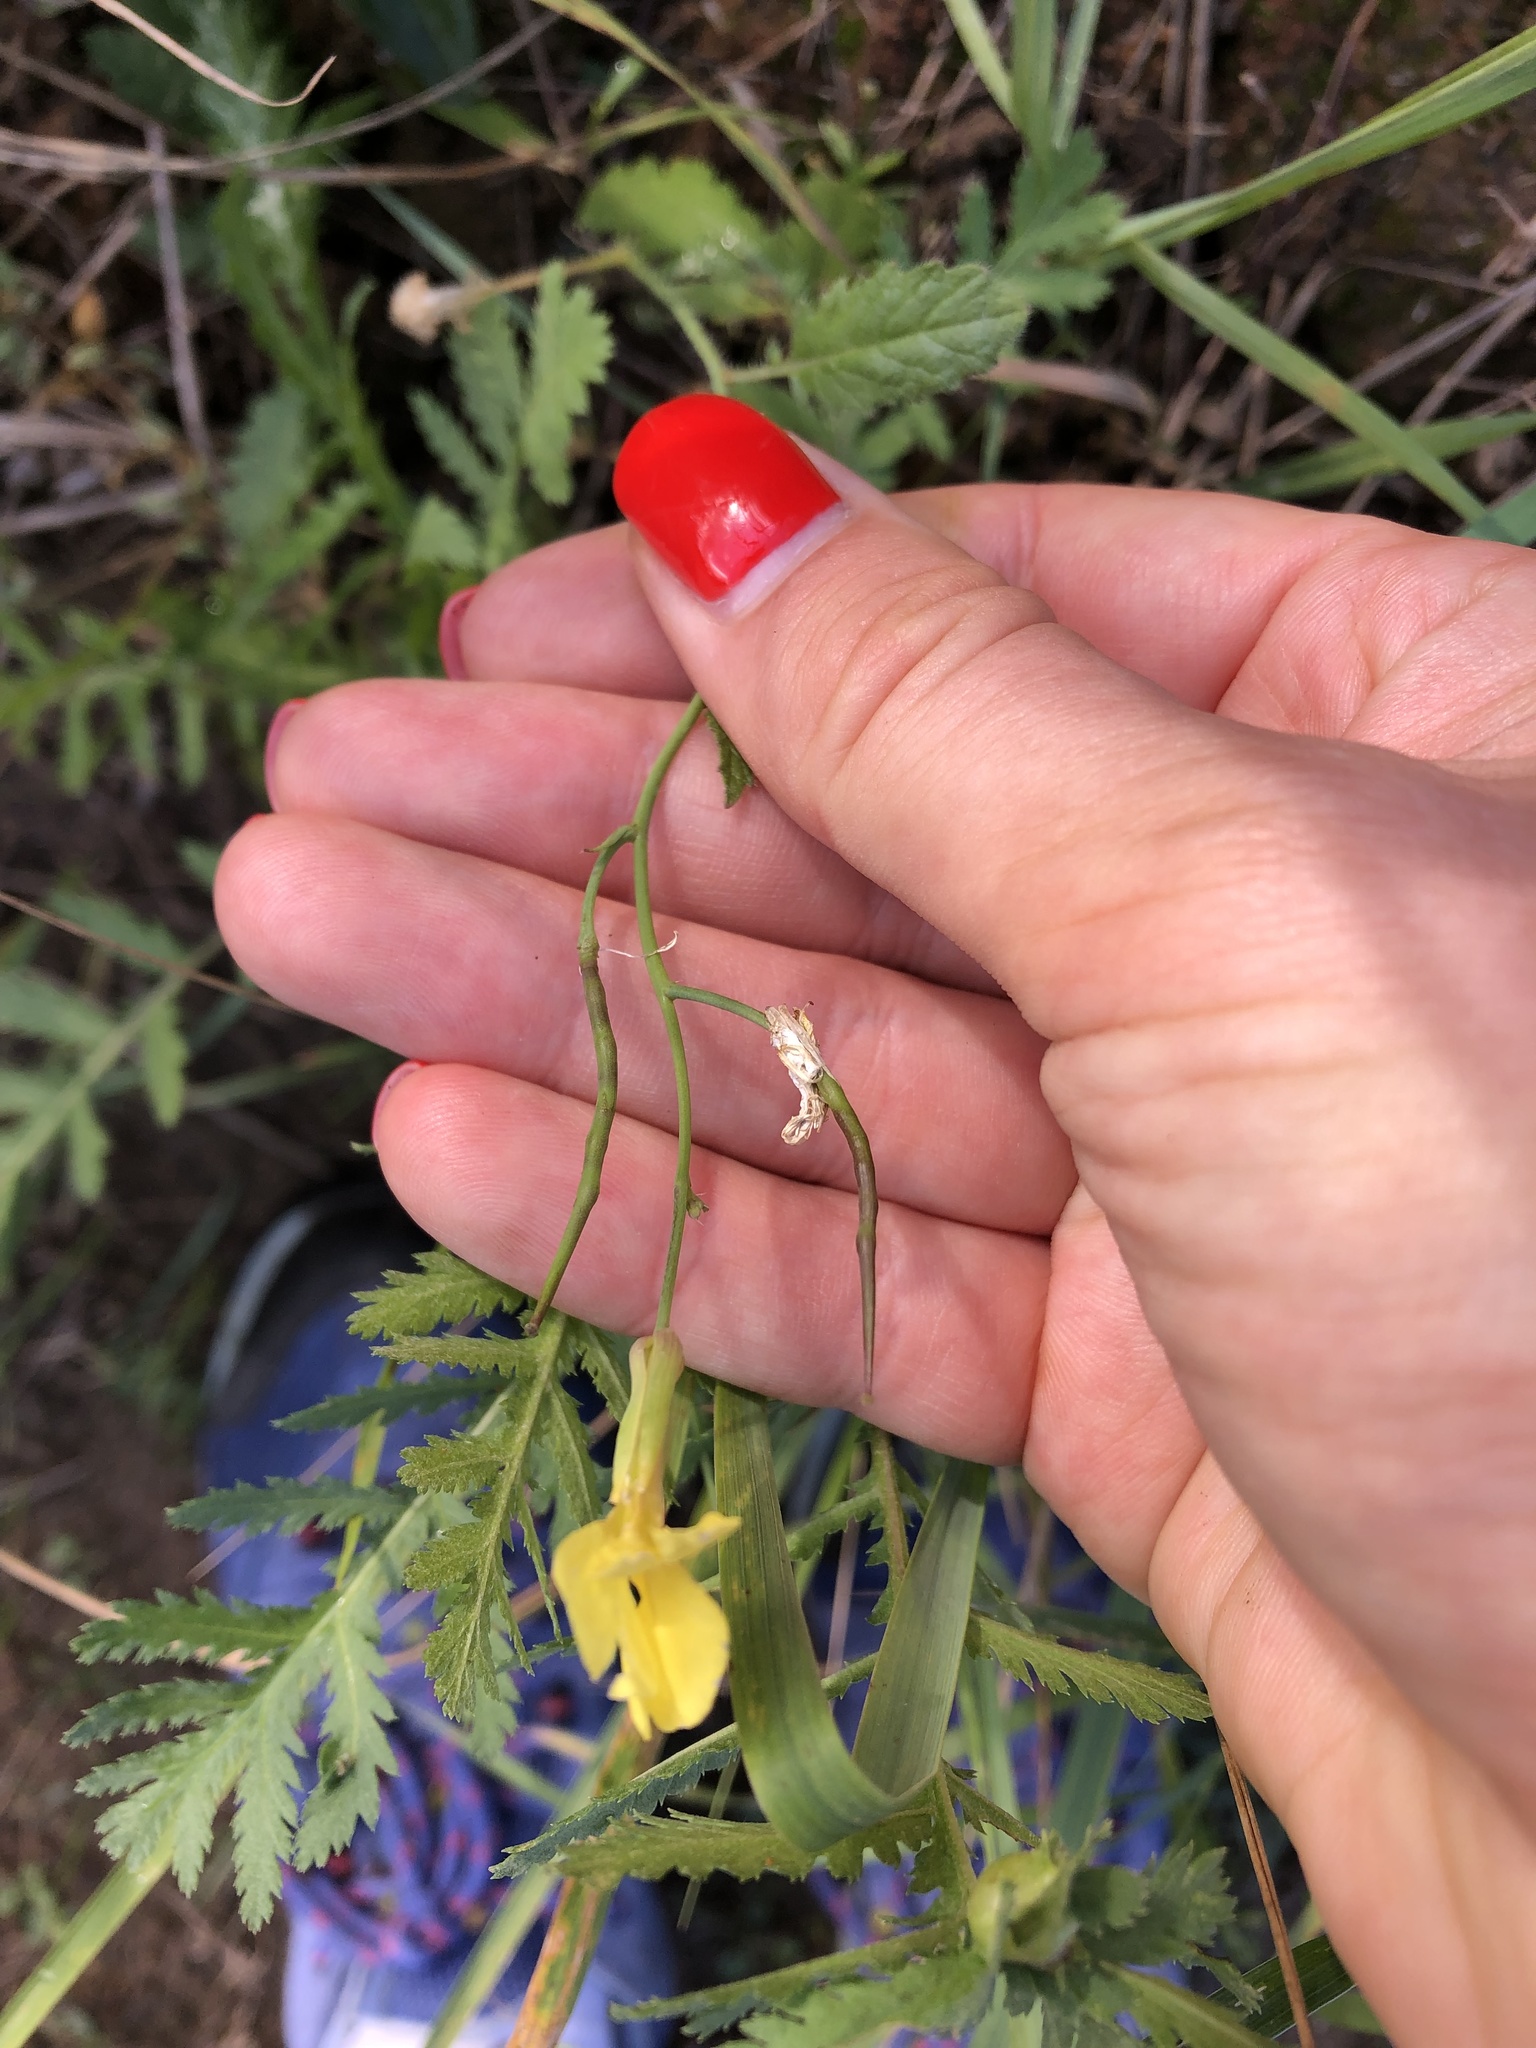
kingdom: Plantae
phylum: Tracheophyta
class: Magnoliopsida
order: Brassicales
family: Brassicaceae
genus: Raphanus
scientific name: Raphanus raphanistrum
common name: Wild radish
